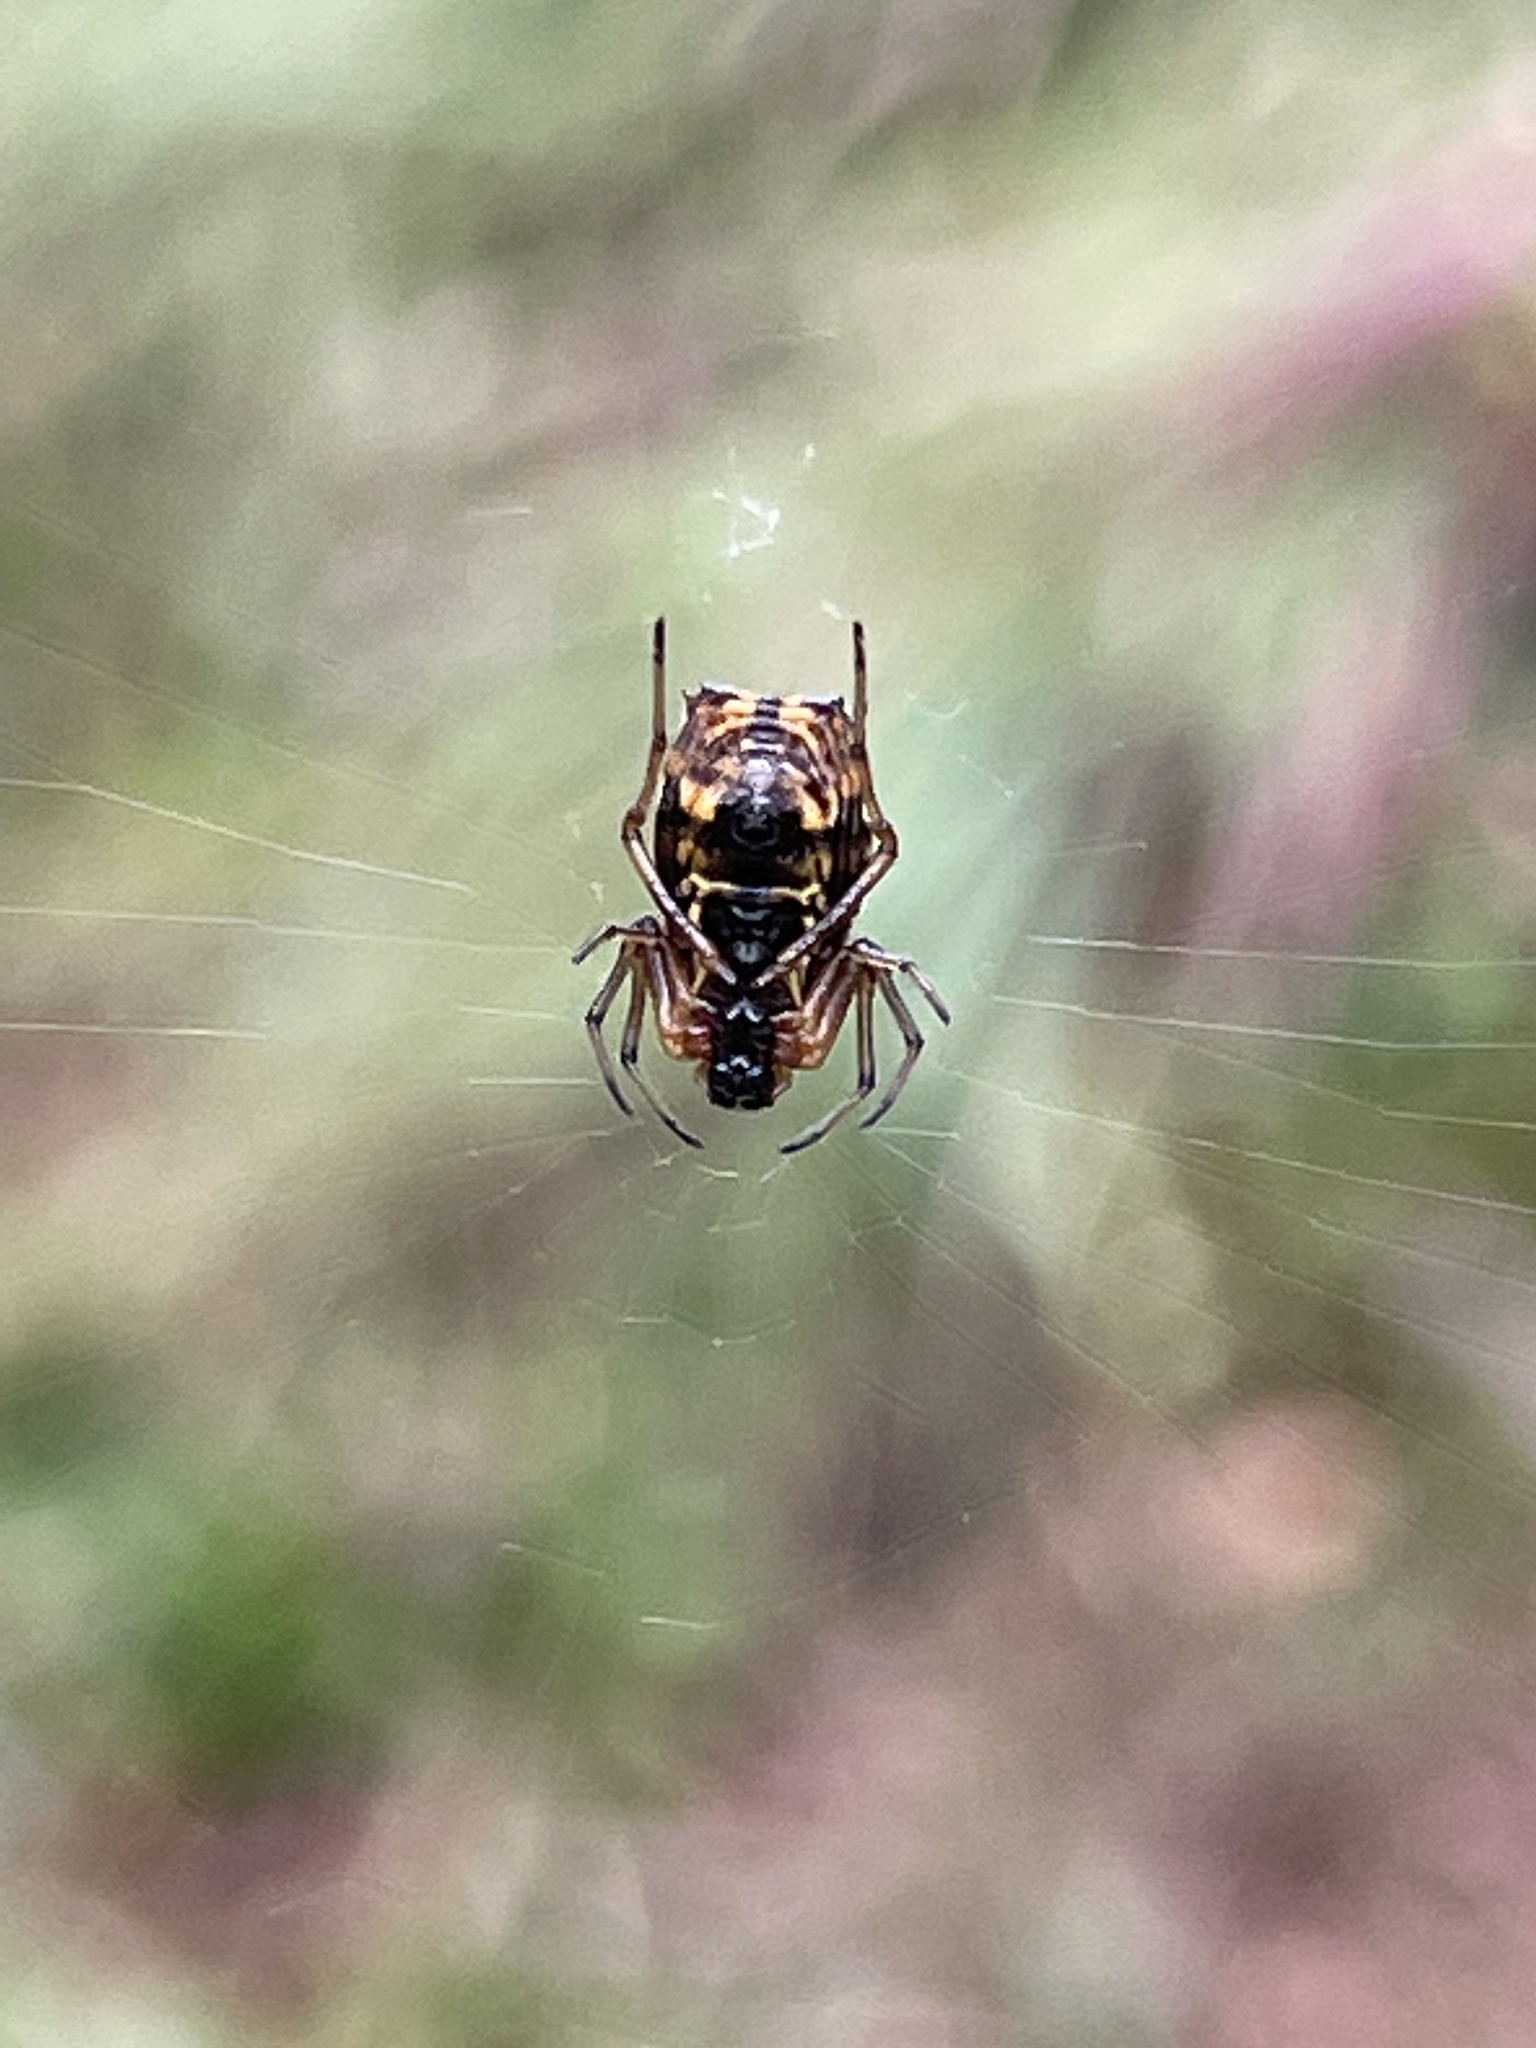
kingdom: Animalia
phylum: Arthropoda
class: Arachnida
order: Araneae
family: Araneidae
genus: Micrathena
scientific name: Micrathena mitrata
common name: Orb weavers
